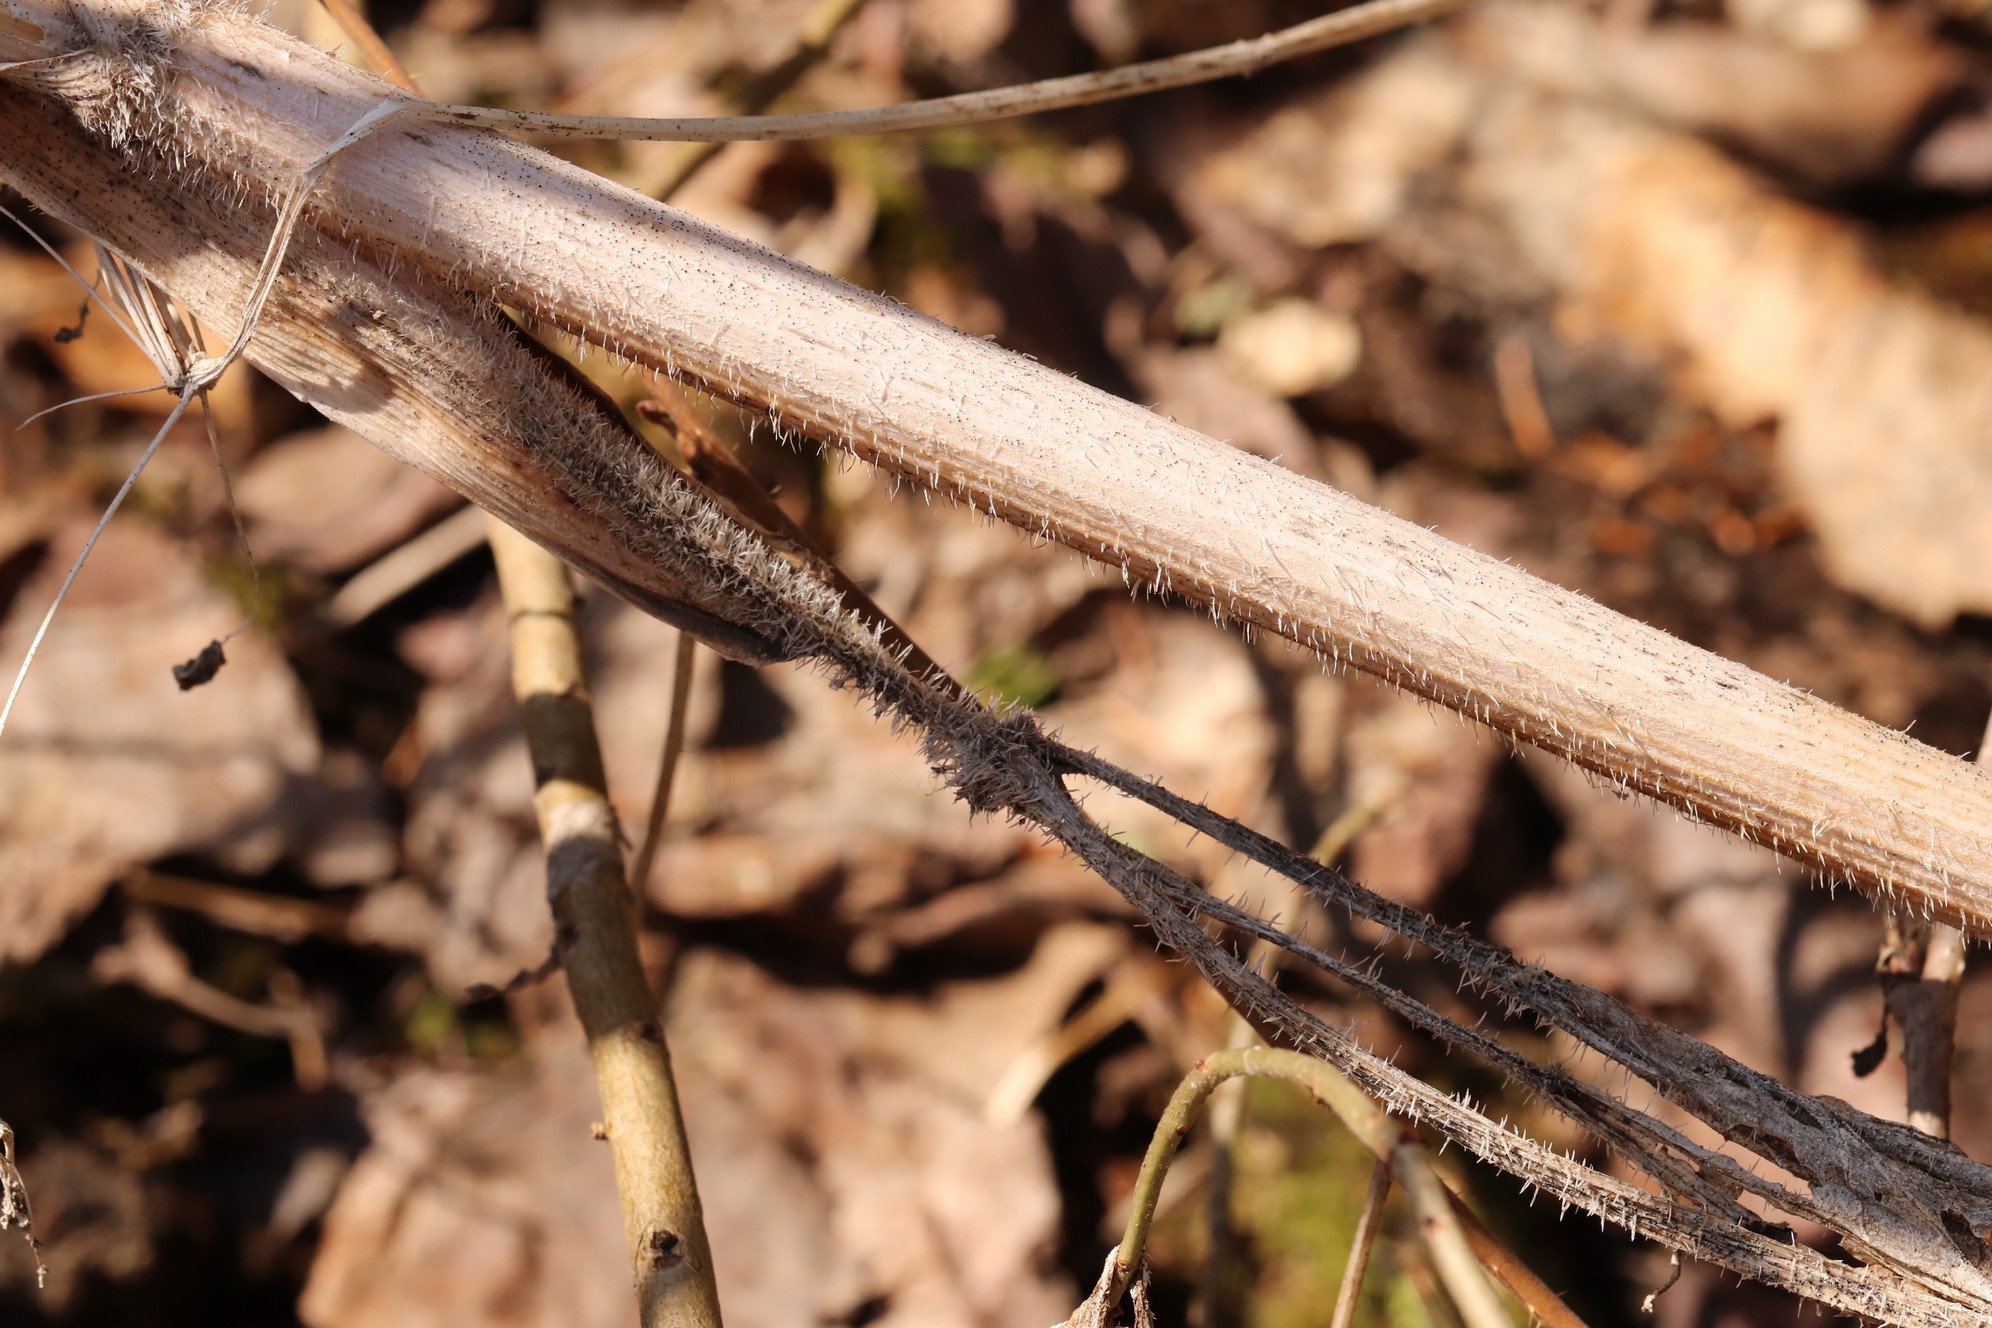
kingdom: Plantae
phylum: Tracheophyta
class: Magnoliopsida
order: Apiales
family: Apiaceae
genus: Heracleum
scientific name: Heracleum sphondylium
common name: Hogweed
